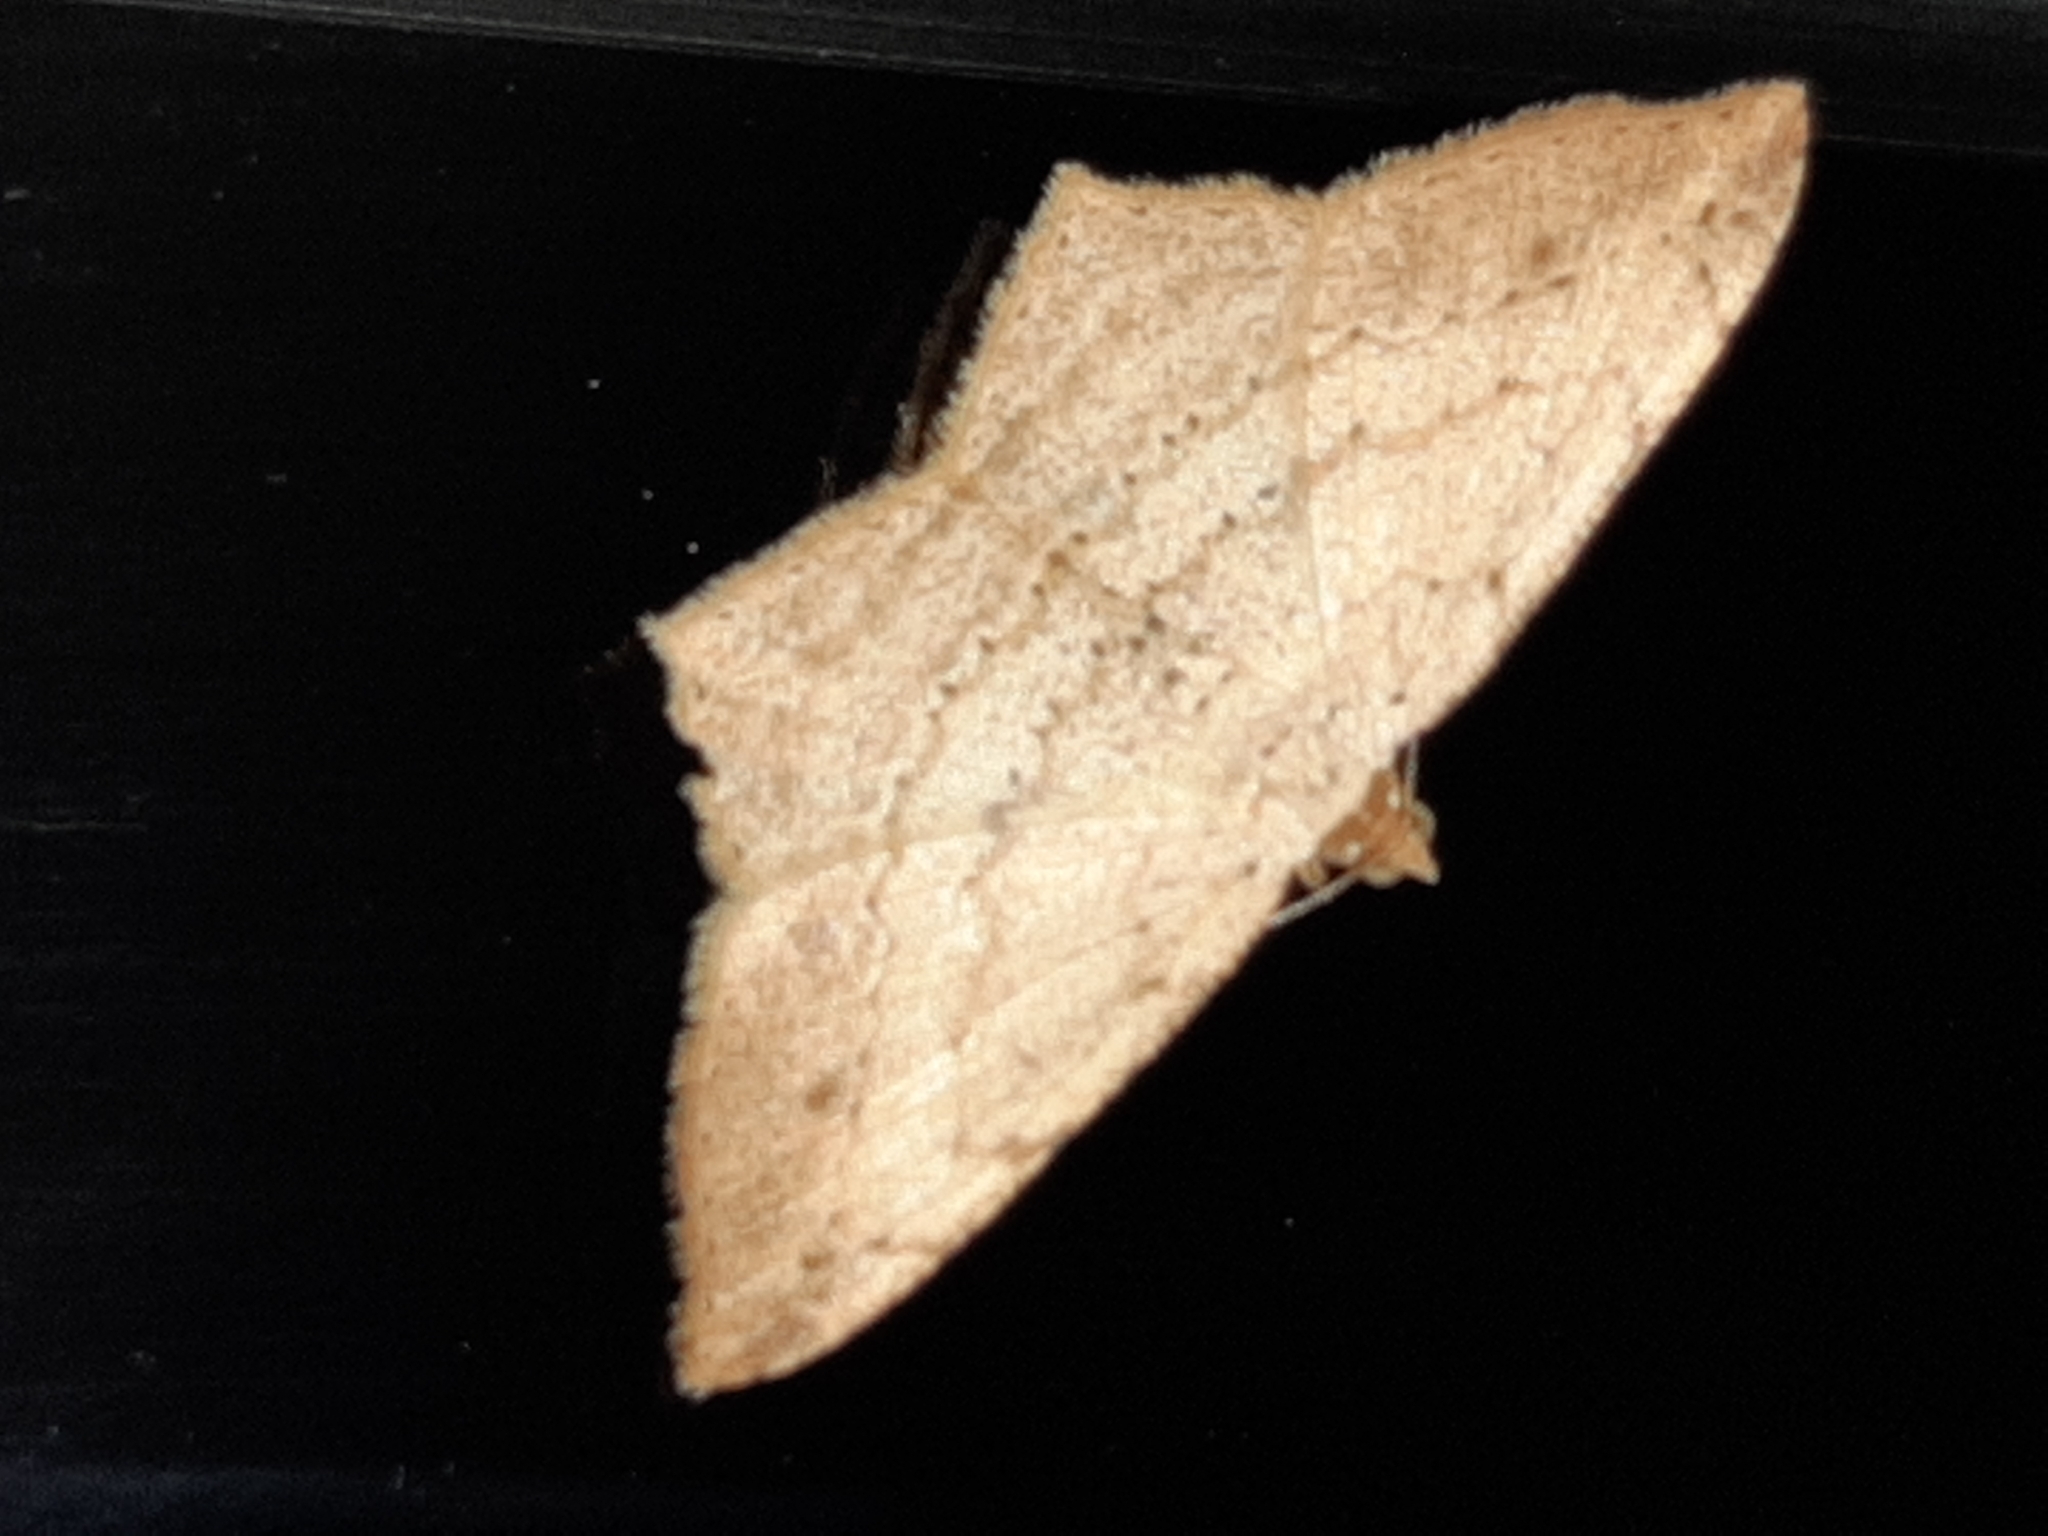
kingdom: Animalia
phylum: Arthropoda
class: Insecta
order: Lepidoptera
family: Geometridae
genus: Macaria
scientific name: Macaria
